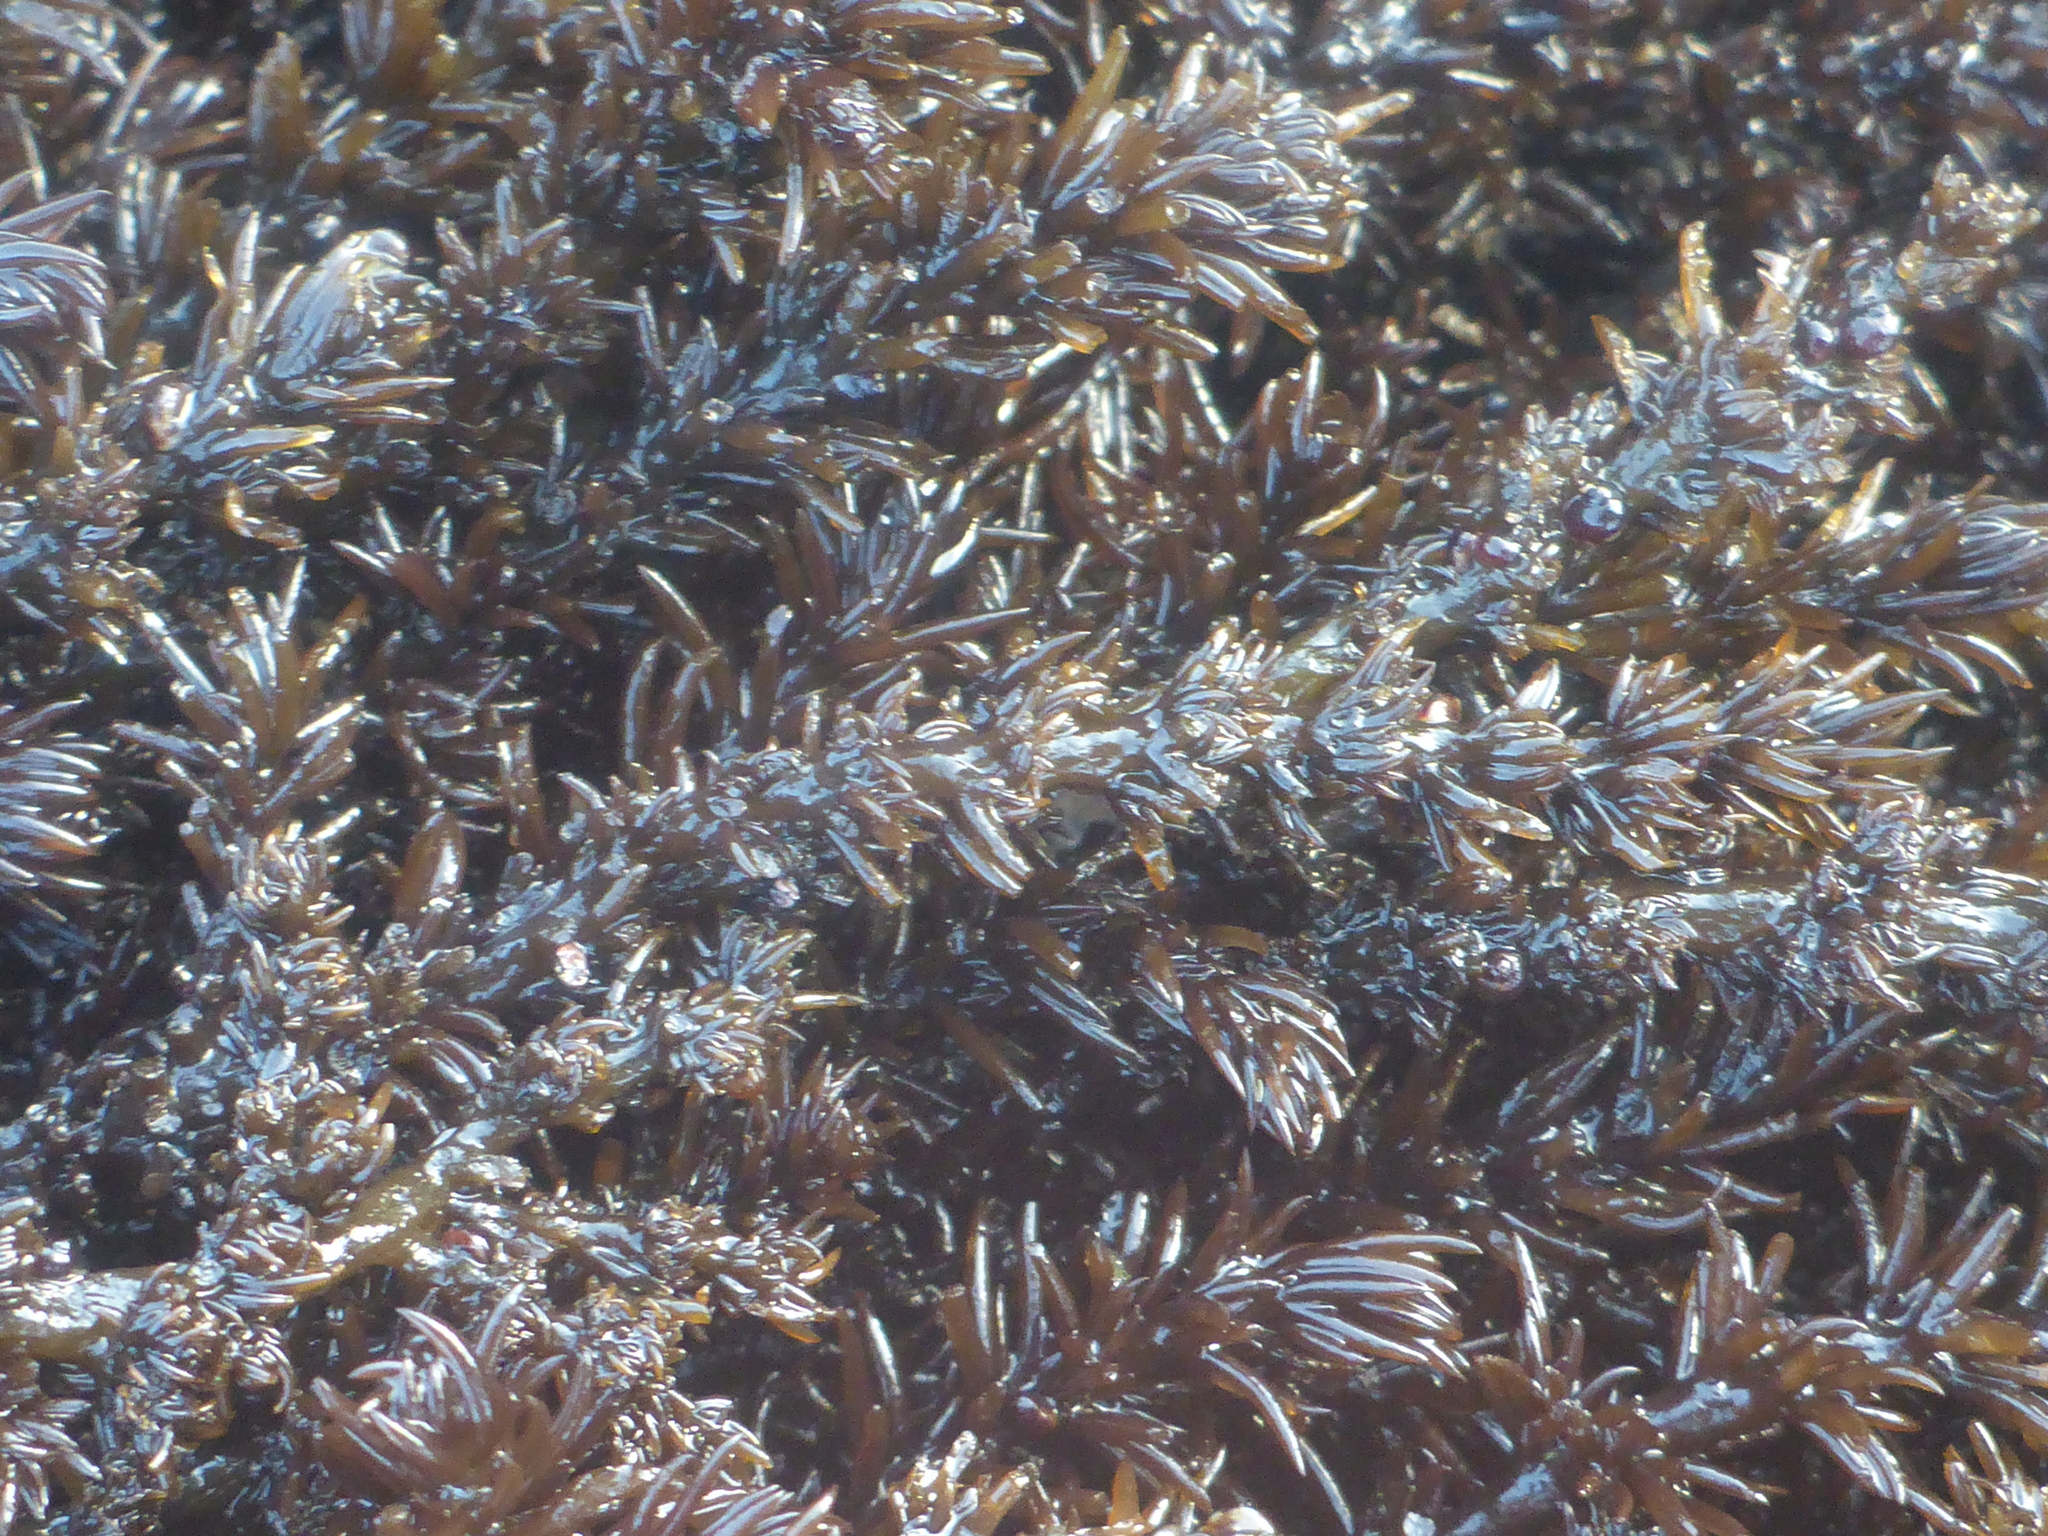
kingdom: Plantae
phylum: Rhodophyta
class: Florideophyceae
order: Ceramiales
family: Rhodomelaceae
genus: Neorhodomela
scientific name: Neorhodomela larix
